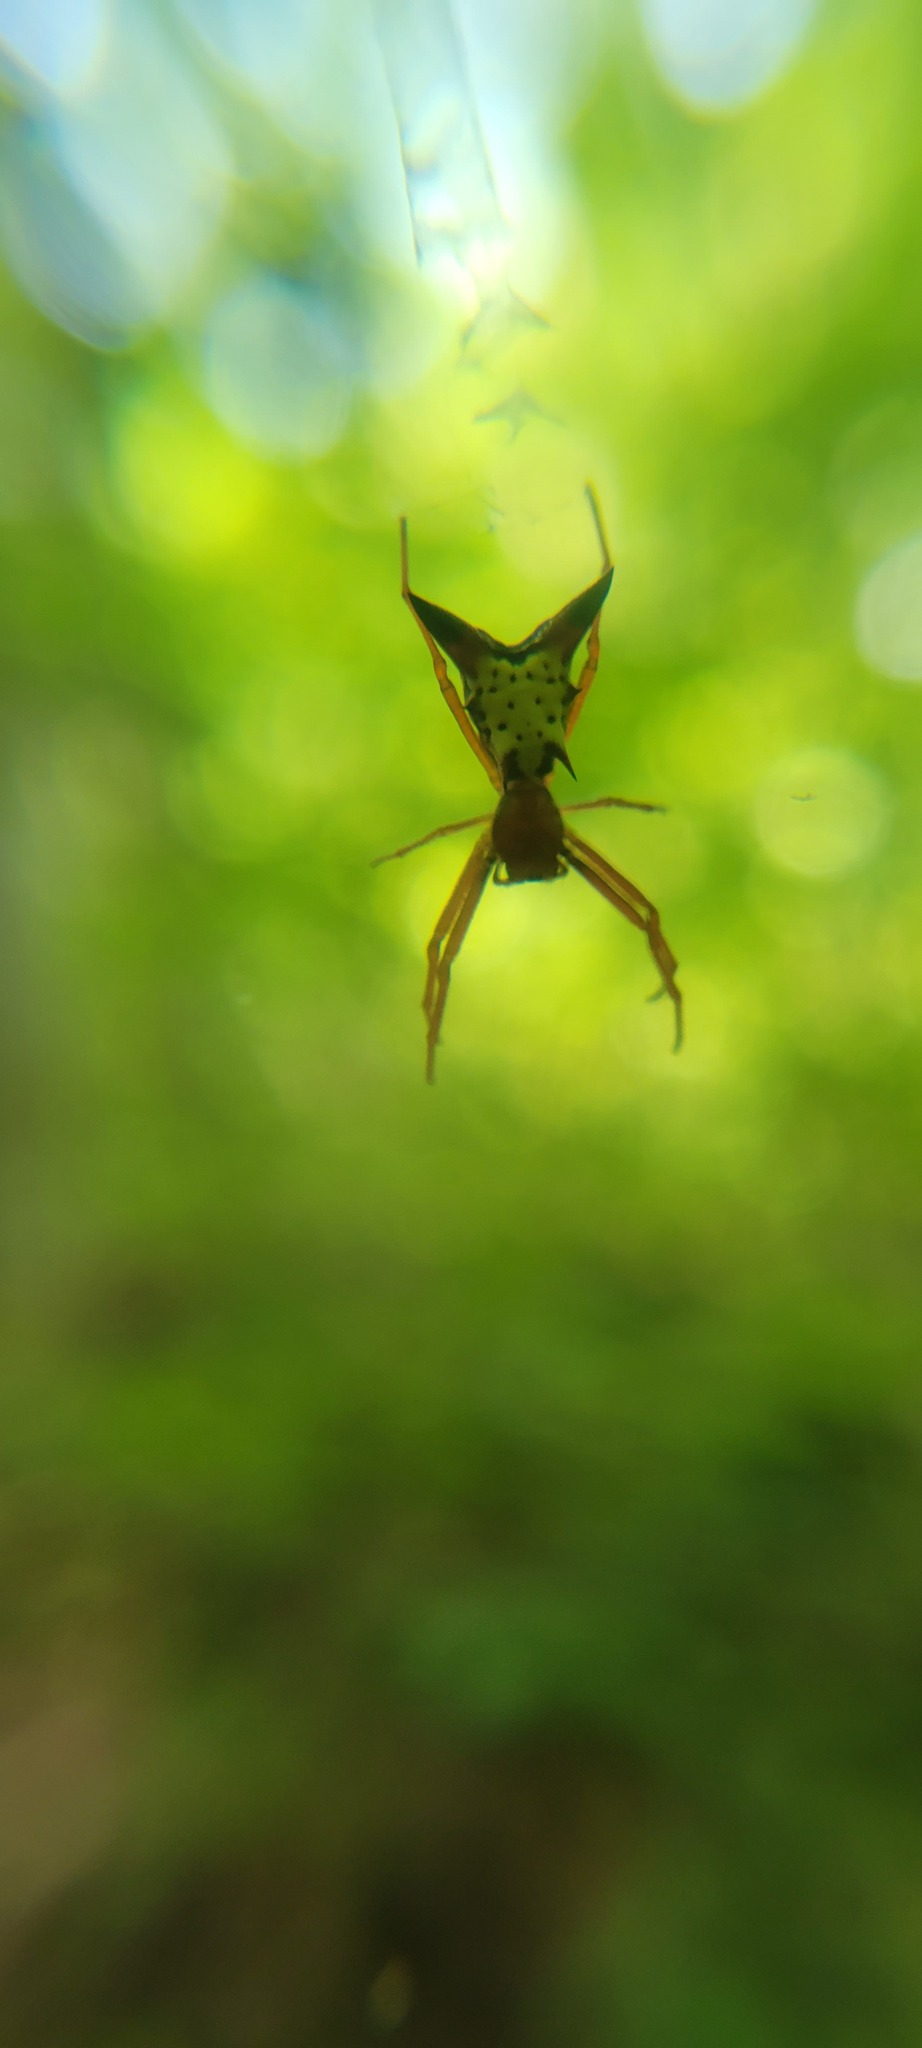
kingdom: Animalia
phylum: Arthropoda
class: Arachnida
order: Araneae
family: Araneidae
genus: Micrathena
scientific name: Micrathena sagittata
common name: Orb weavers
